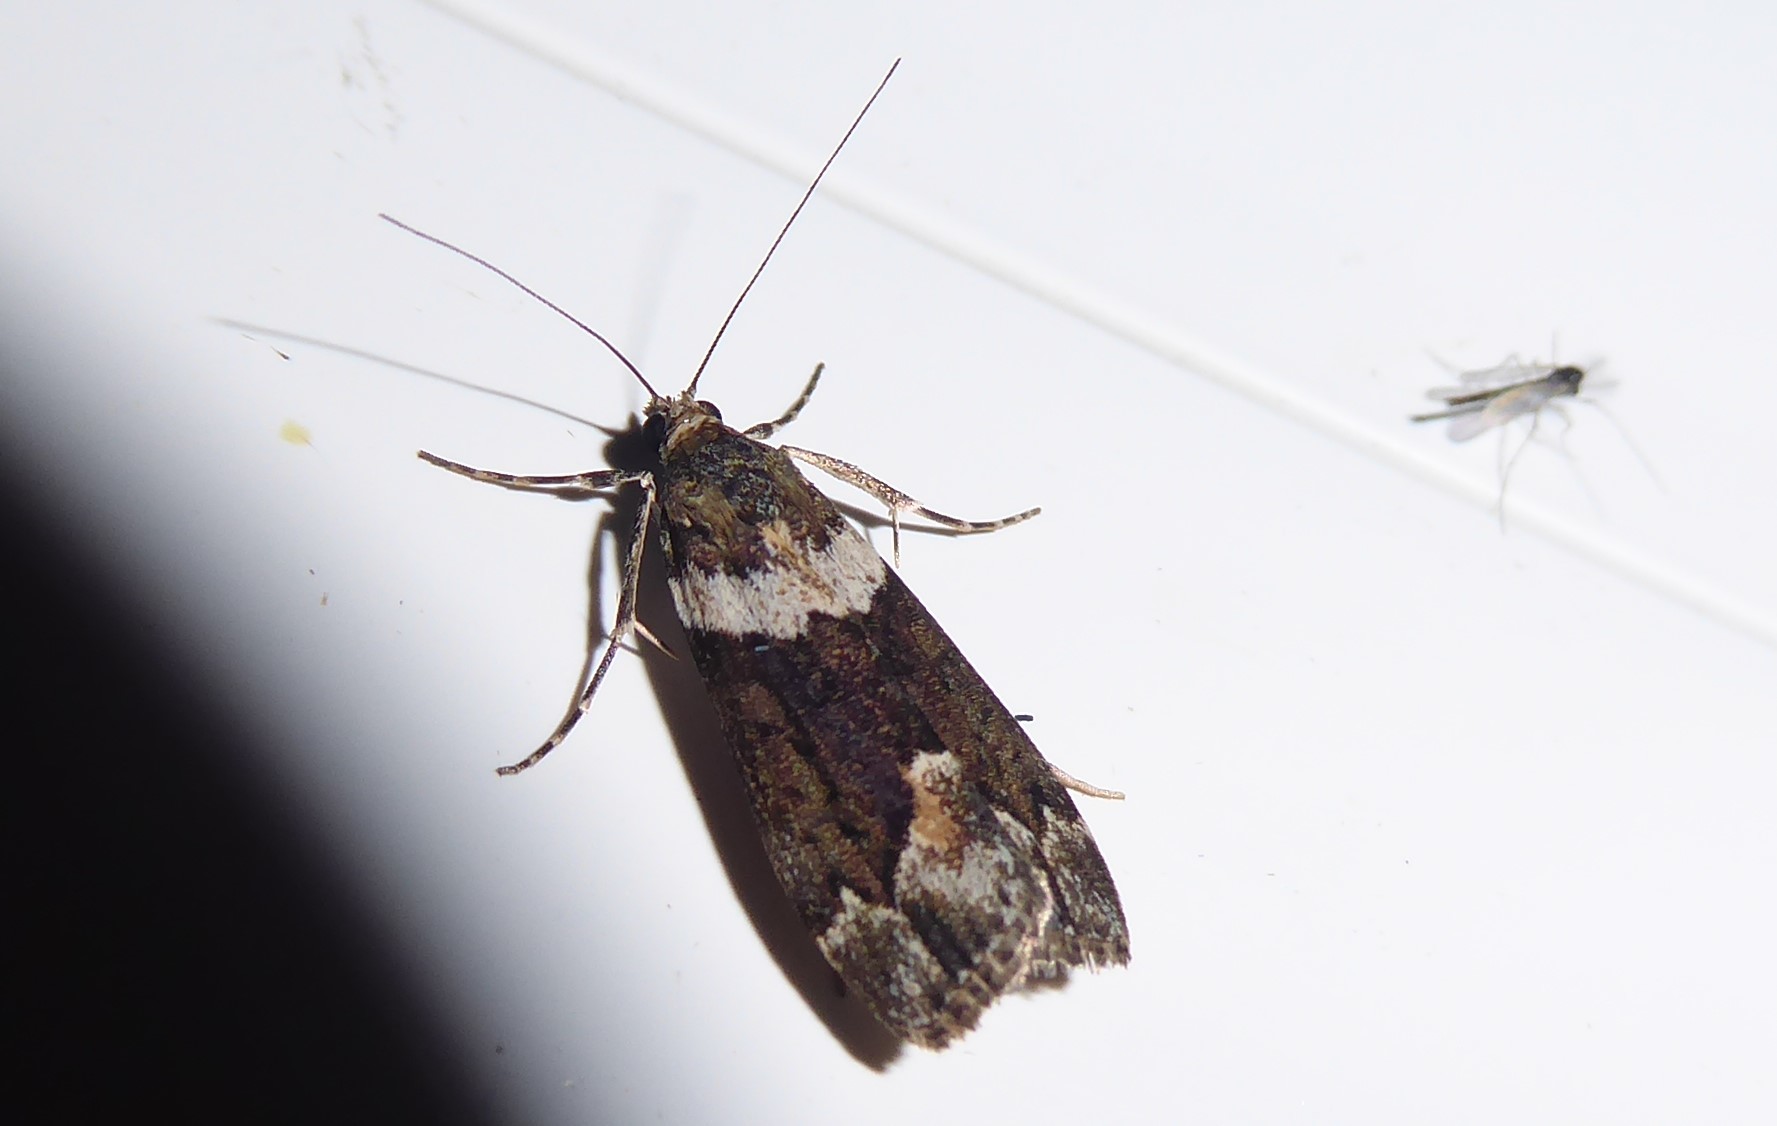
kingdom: Animalia
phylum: Arthropoda
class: Insecta
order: Lepidoptera
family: Crambidae
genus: Eudonia
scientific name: Eudonia submarginalis
